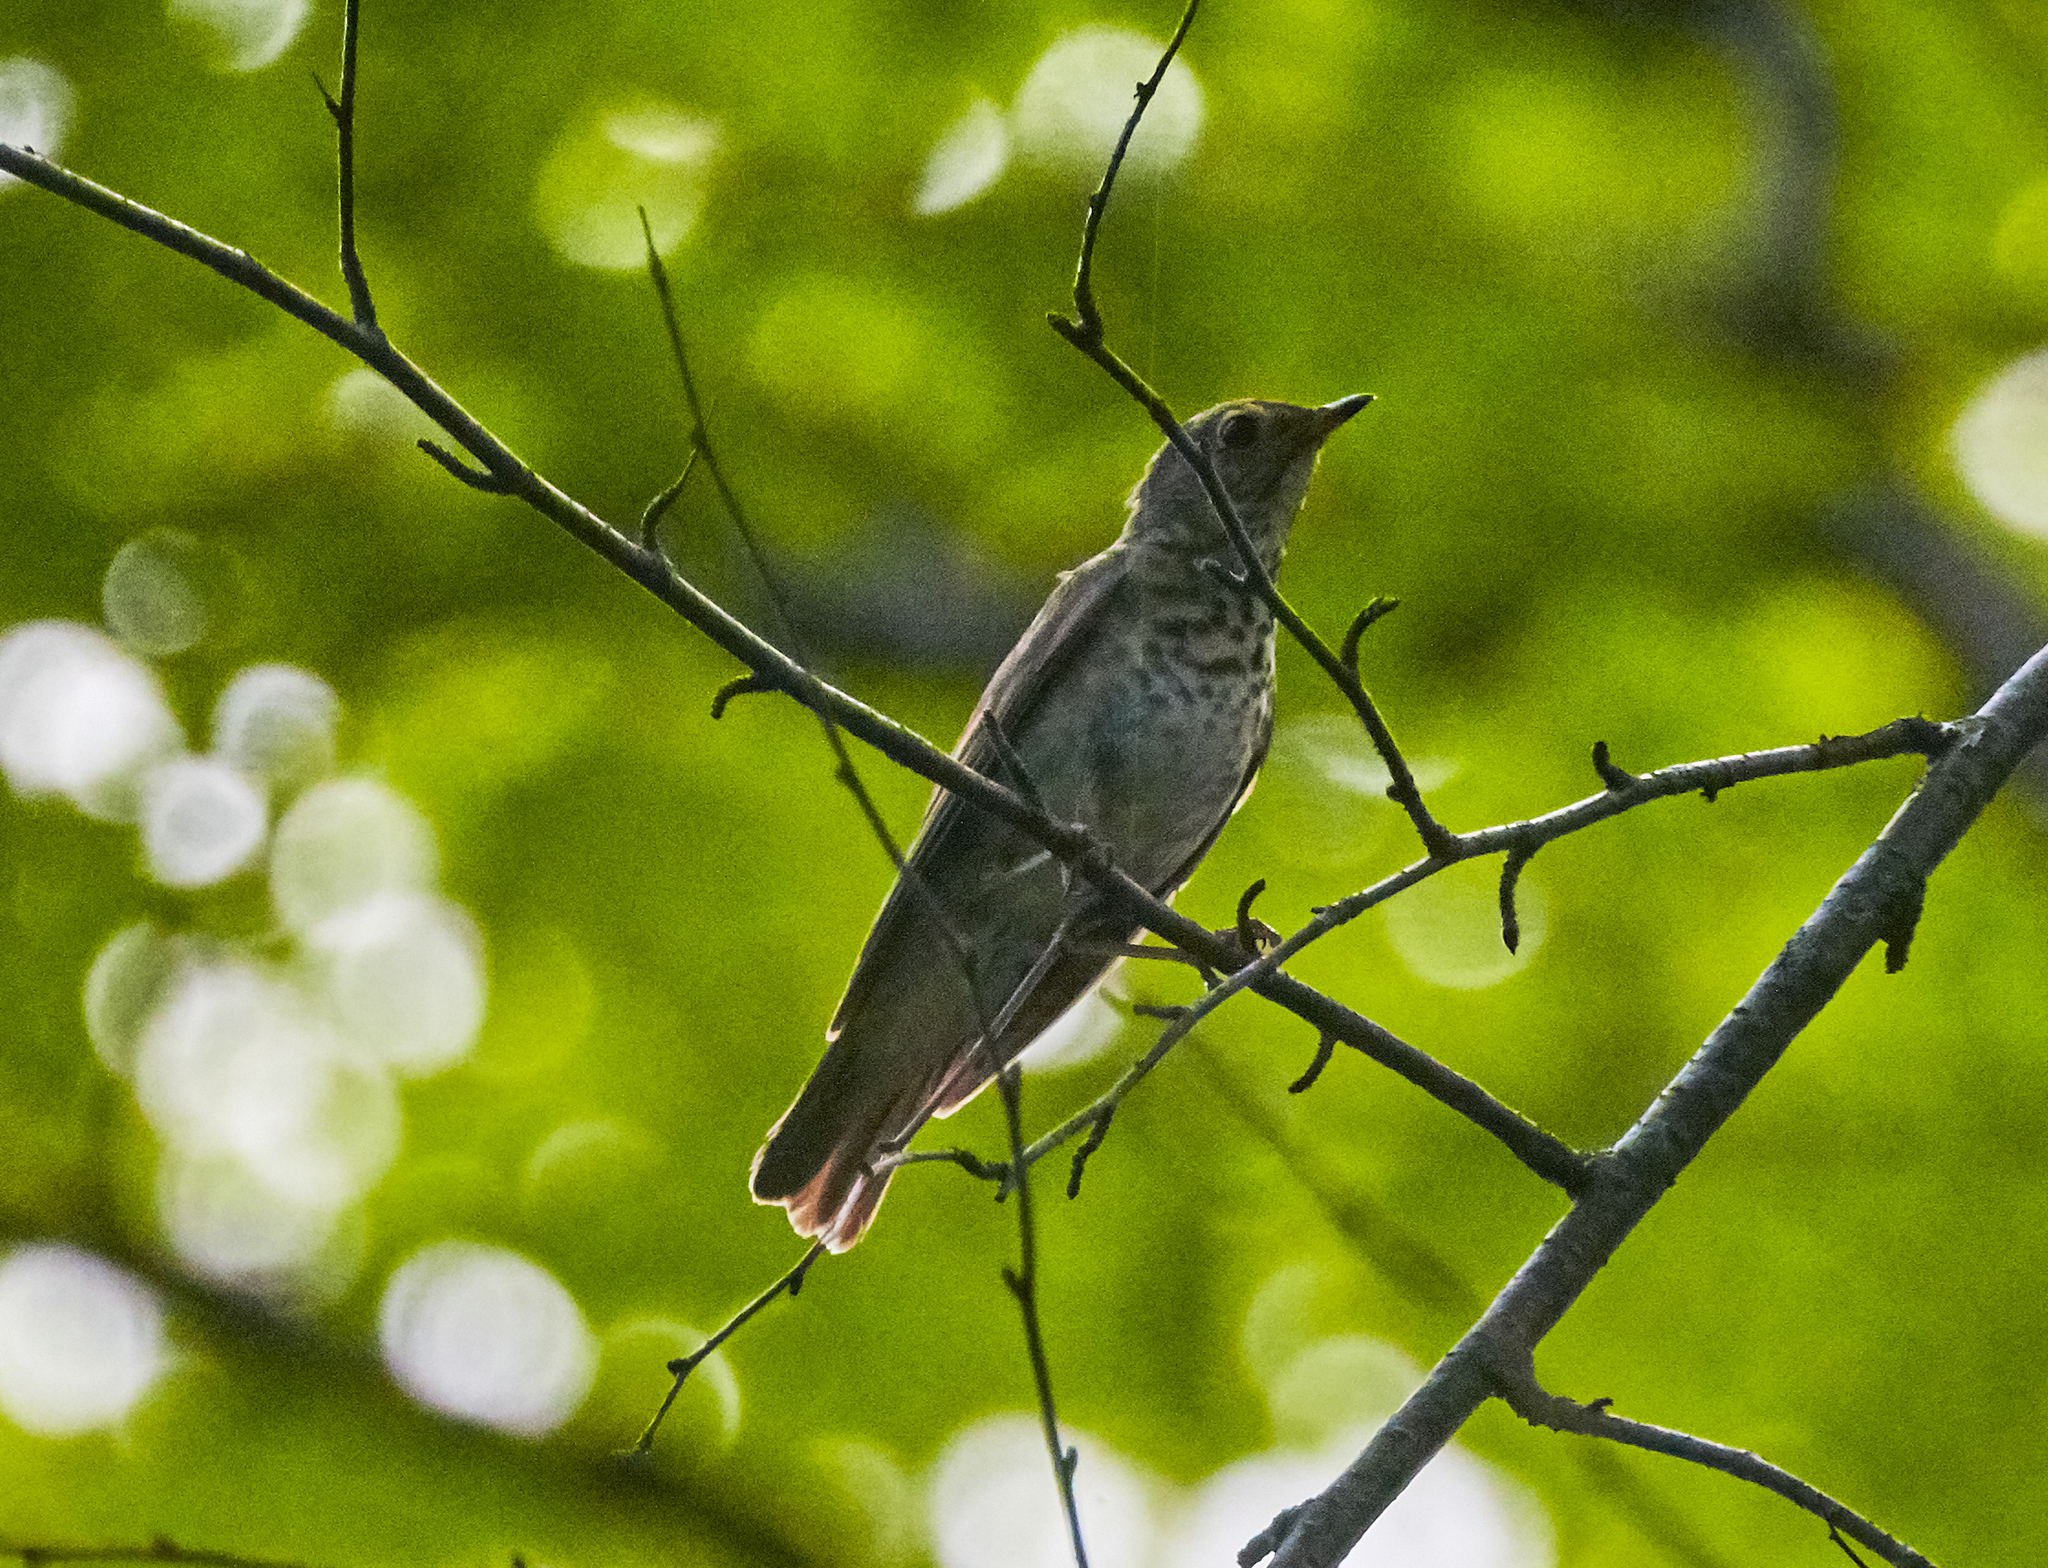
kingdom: Animalia
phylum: Chordata
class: Aves
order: Passeriformes
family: Turdidae
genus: Catharus
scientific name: Catharus guttatus
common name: Hermit thrush
